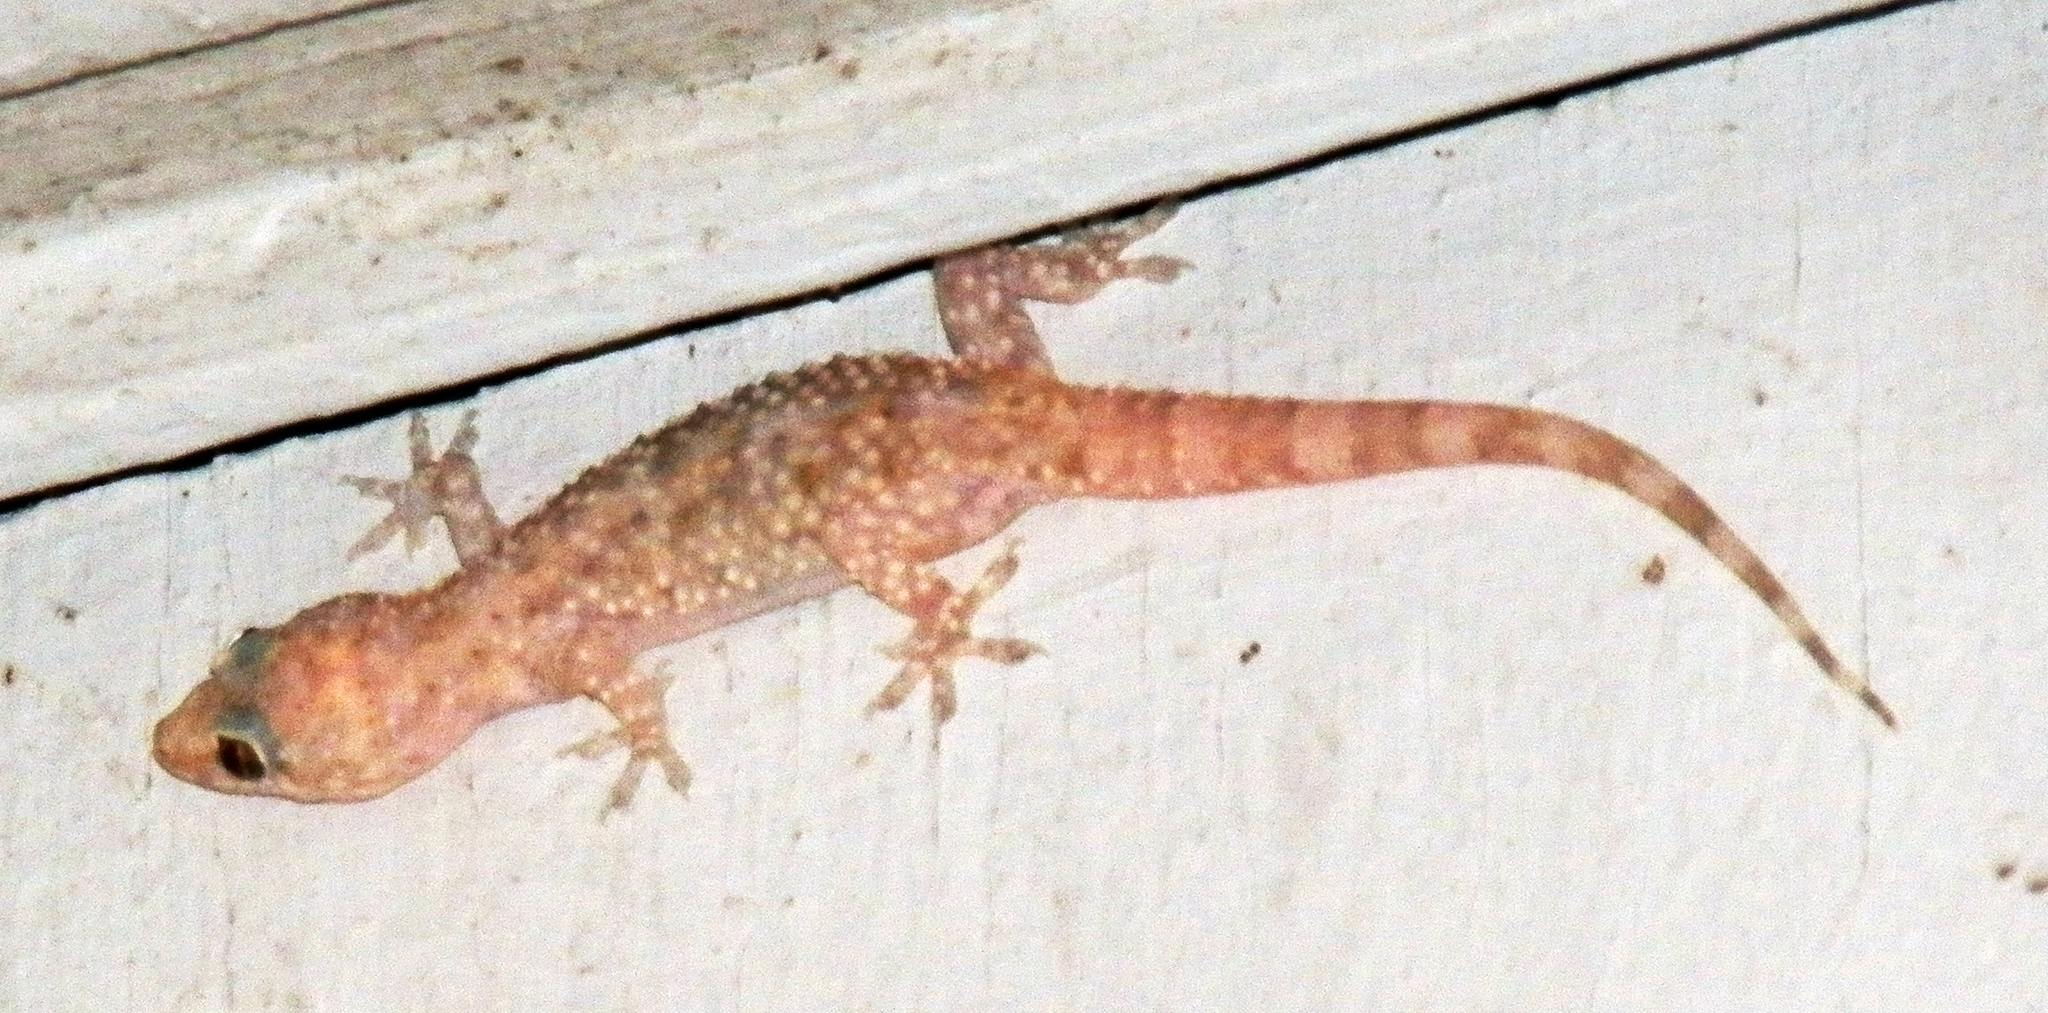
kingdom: Animalia
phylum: Chordata
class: Squamata
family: Gekkonidae
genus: Hemidactylus
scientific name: Hemidactylus turcicus
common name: Turkish gecko
